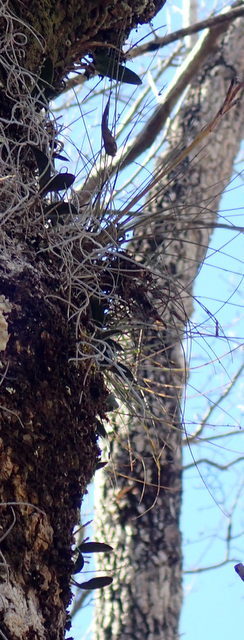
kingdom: Plantae
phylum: Tracheophyta
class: Liliopsida
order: Asparagales
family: Orchidaceae
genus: Epidendrum
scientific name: Epidendrum conopseum
